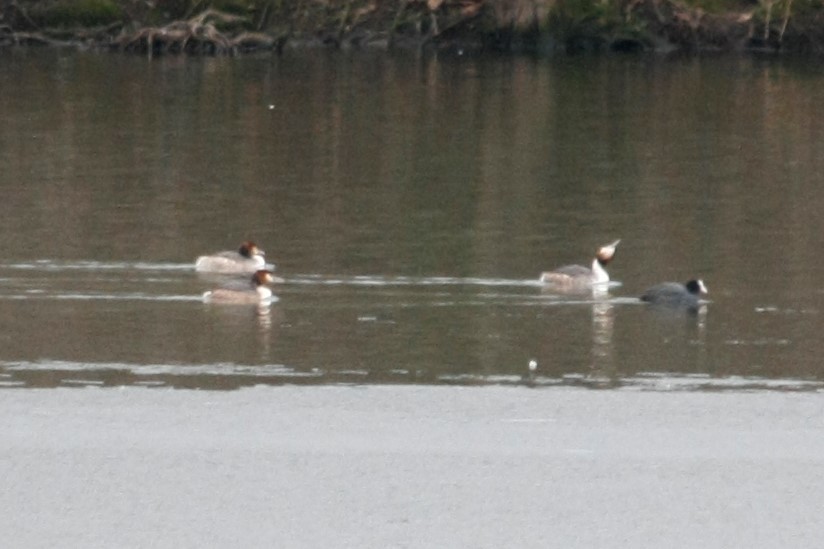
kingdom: Animalia
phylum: Chordata
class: Aves
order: Podicipediformes
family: Podicipedidae
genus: Podiceps
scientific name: Podiceps cristatus
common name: Great crested grebe
